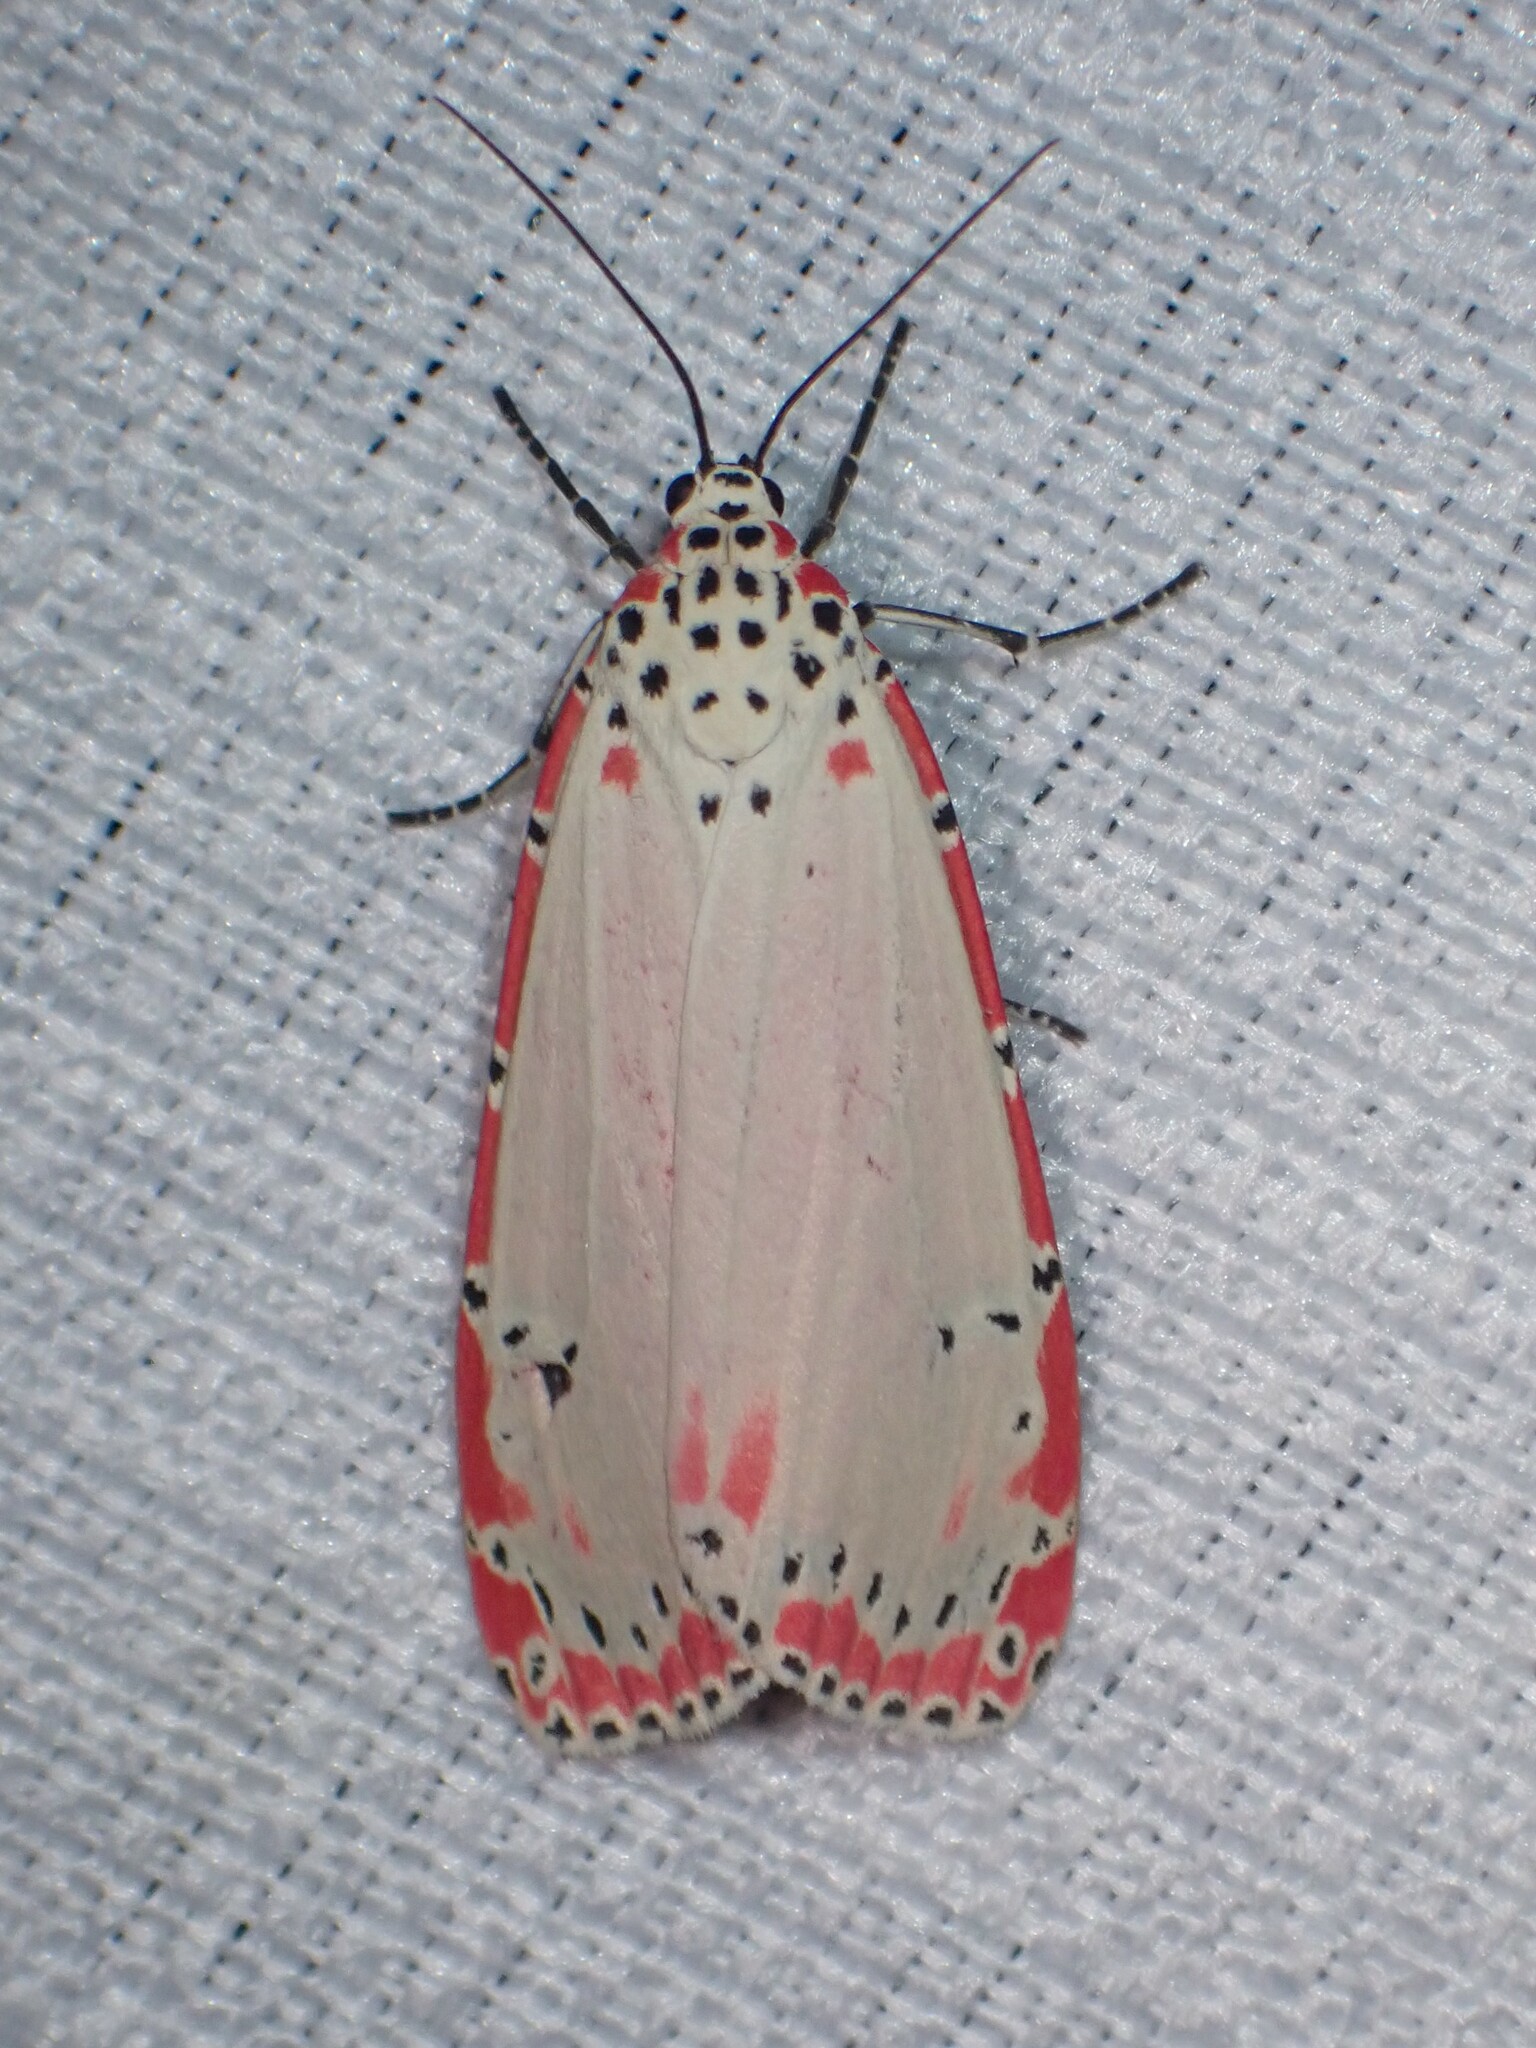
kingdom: Animalia
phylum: Arthropoda
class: Insecta
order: Lepidoptera
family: Erebidae
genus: Utetheisa
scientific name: Utetheisa ornatrix
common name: Beautiful utetheisa
